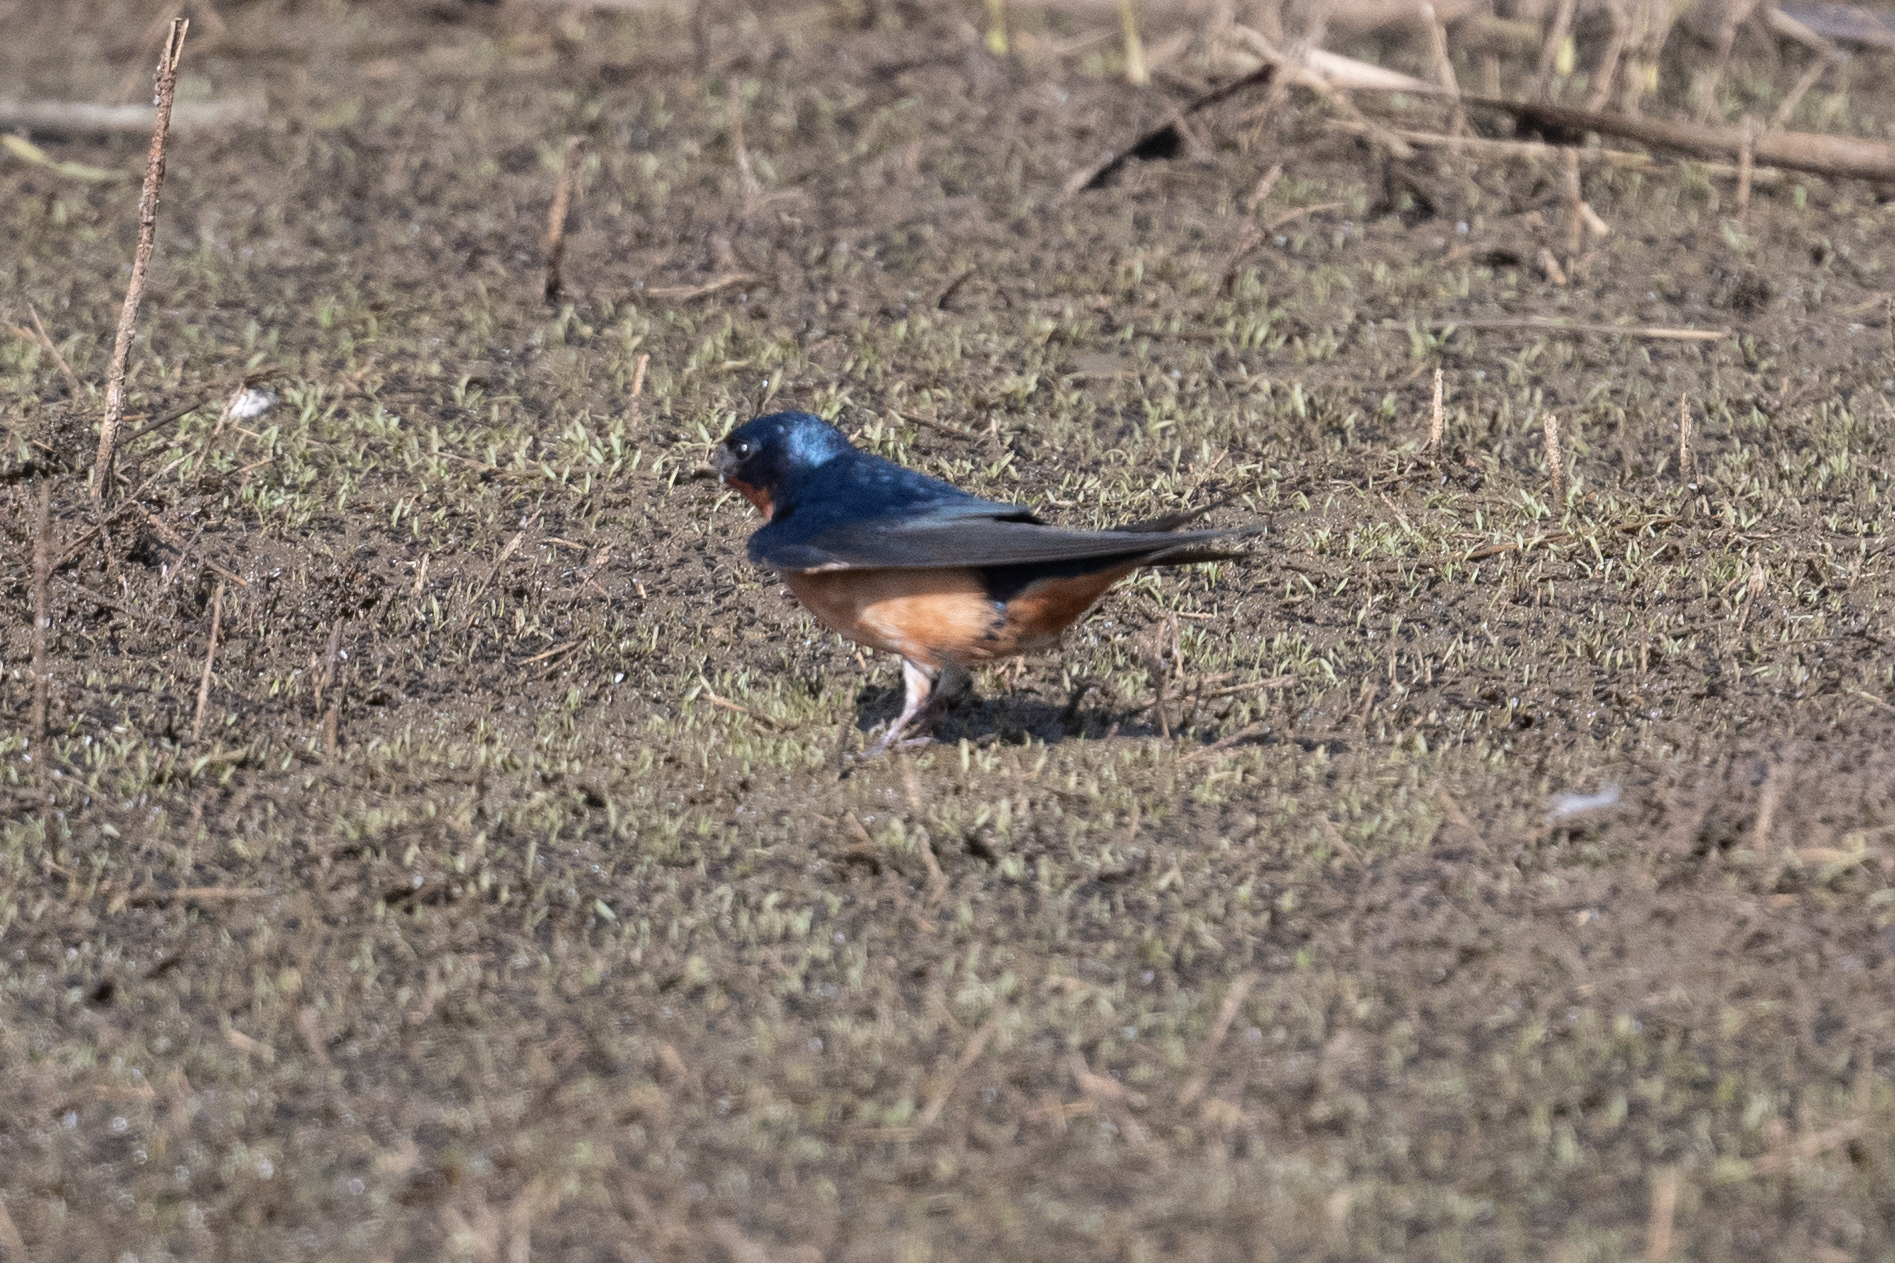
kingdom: Animalia
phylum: Chordata
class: Aves
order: Passeriformes
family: Hirundinidae
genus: Hirundo
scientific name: Hirundo rustica
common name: Barn swallow
